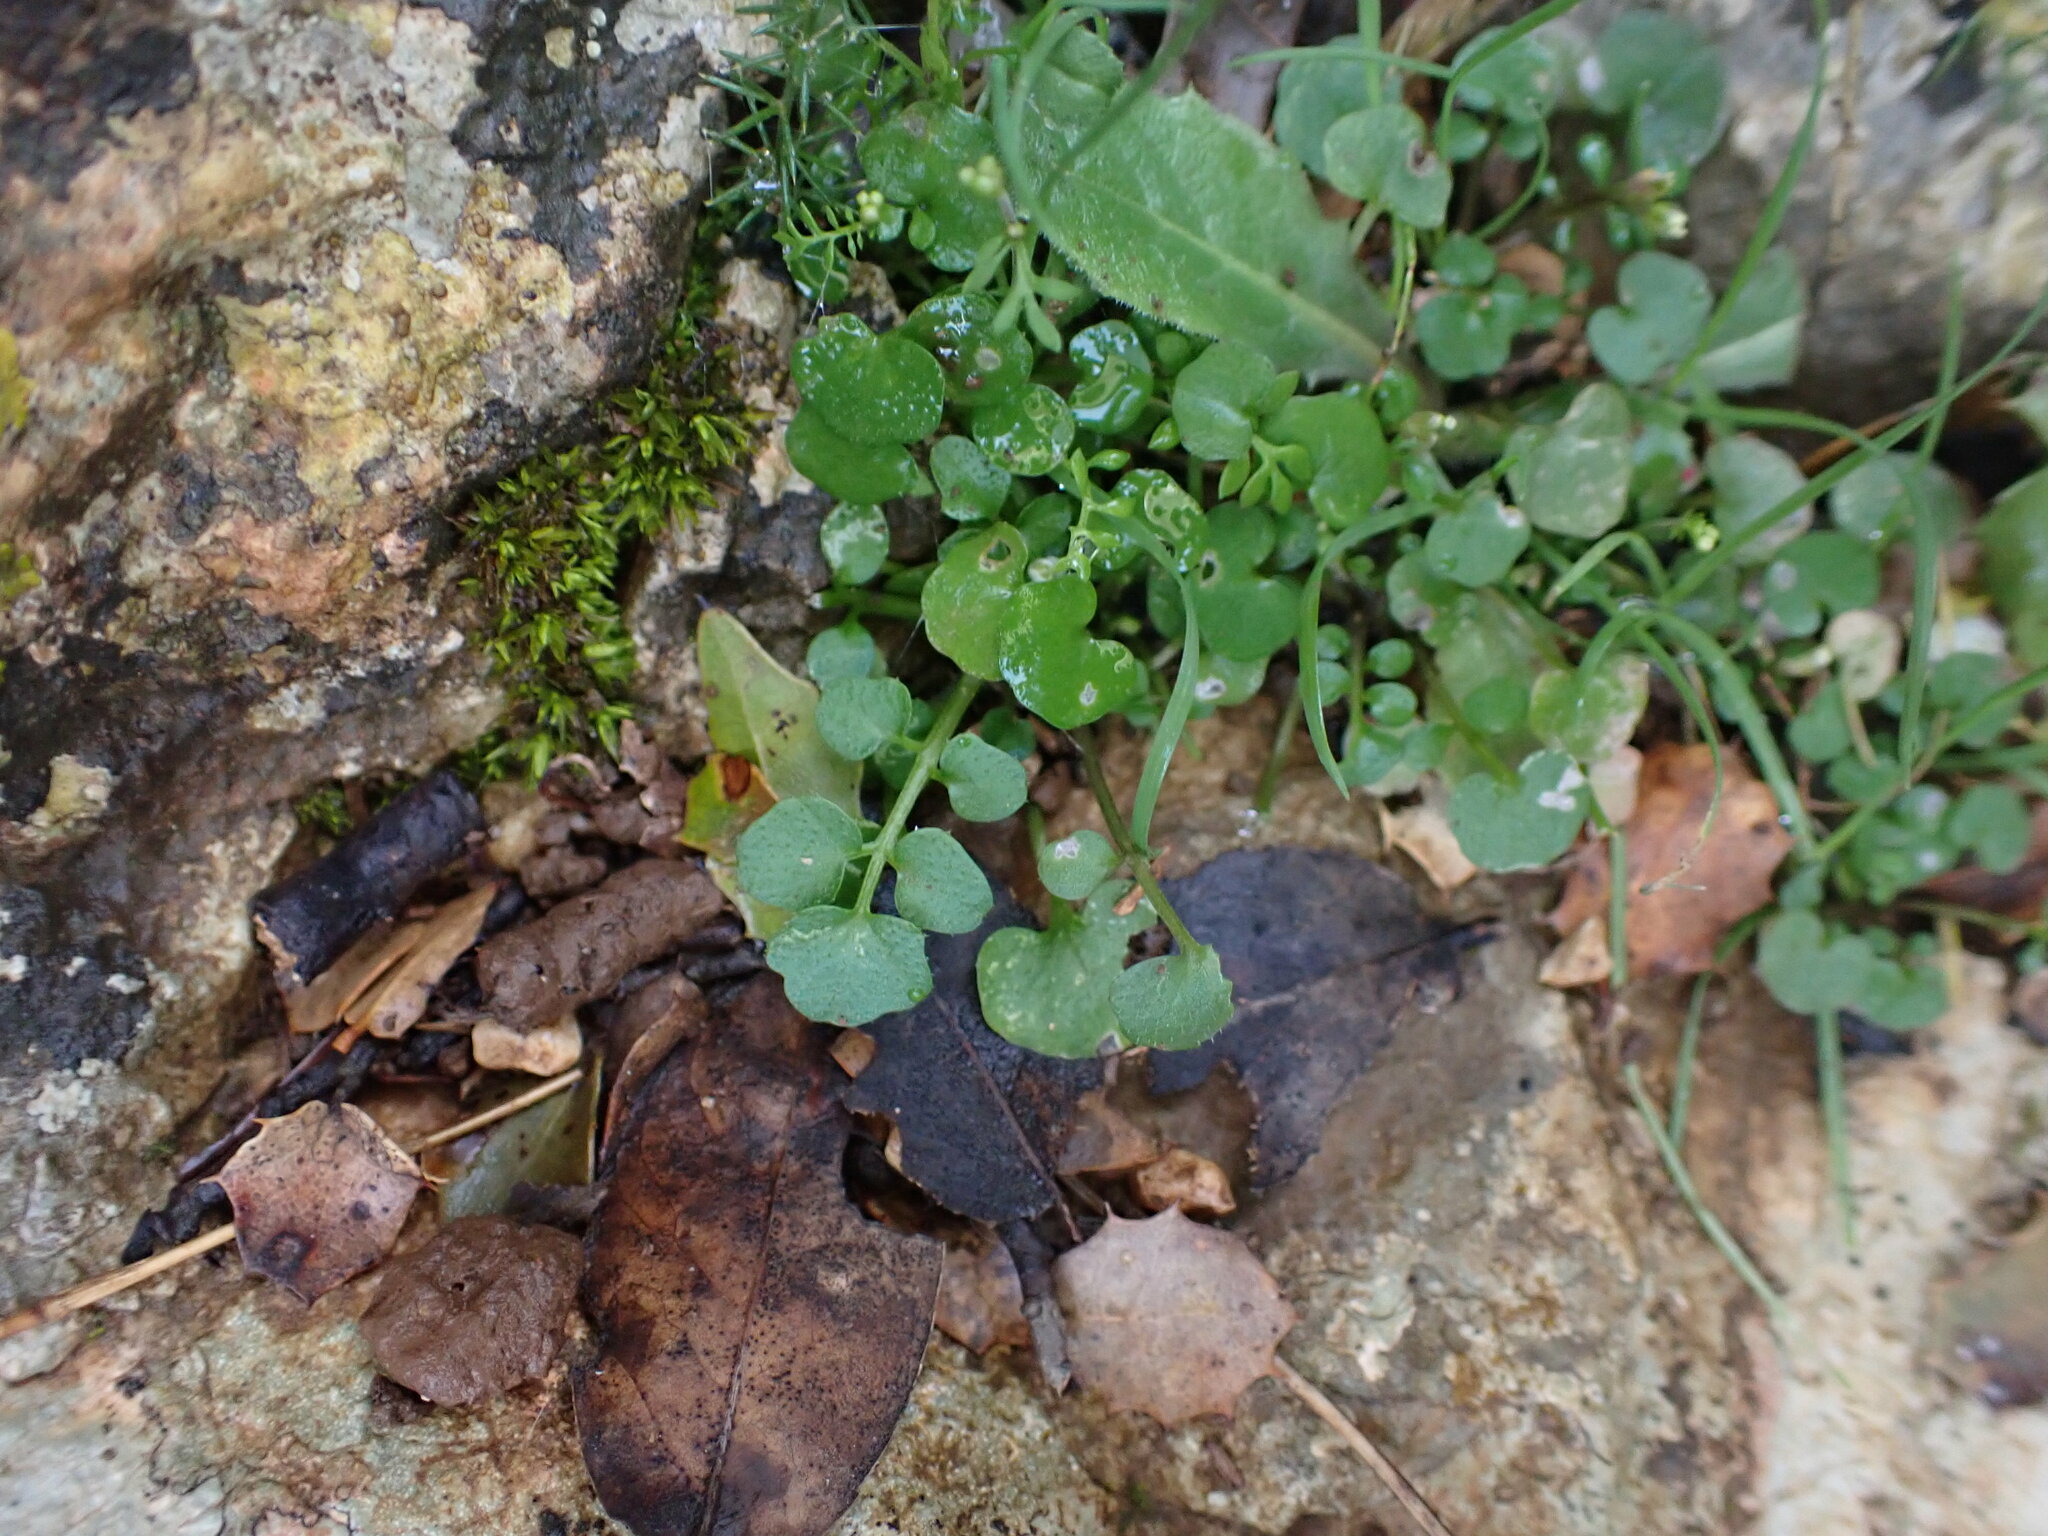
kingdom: Plantae
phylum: Tracheophyta
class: Magnoliopsida
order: Brassicales
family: Brassicaceae
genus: Cardamine
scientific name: Cardamine hirsuta
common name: Hairy bittercress
